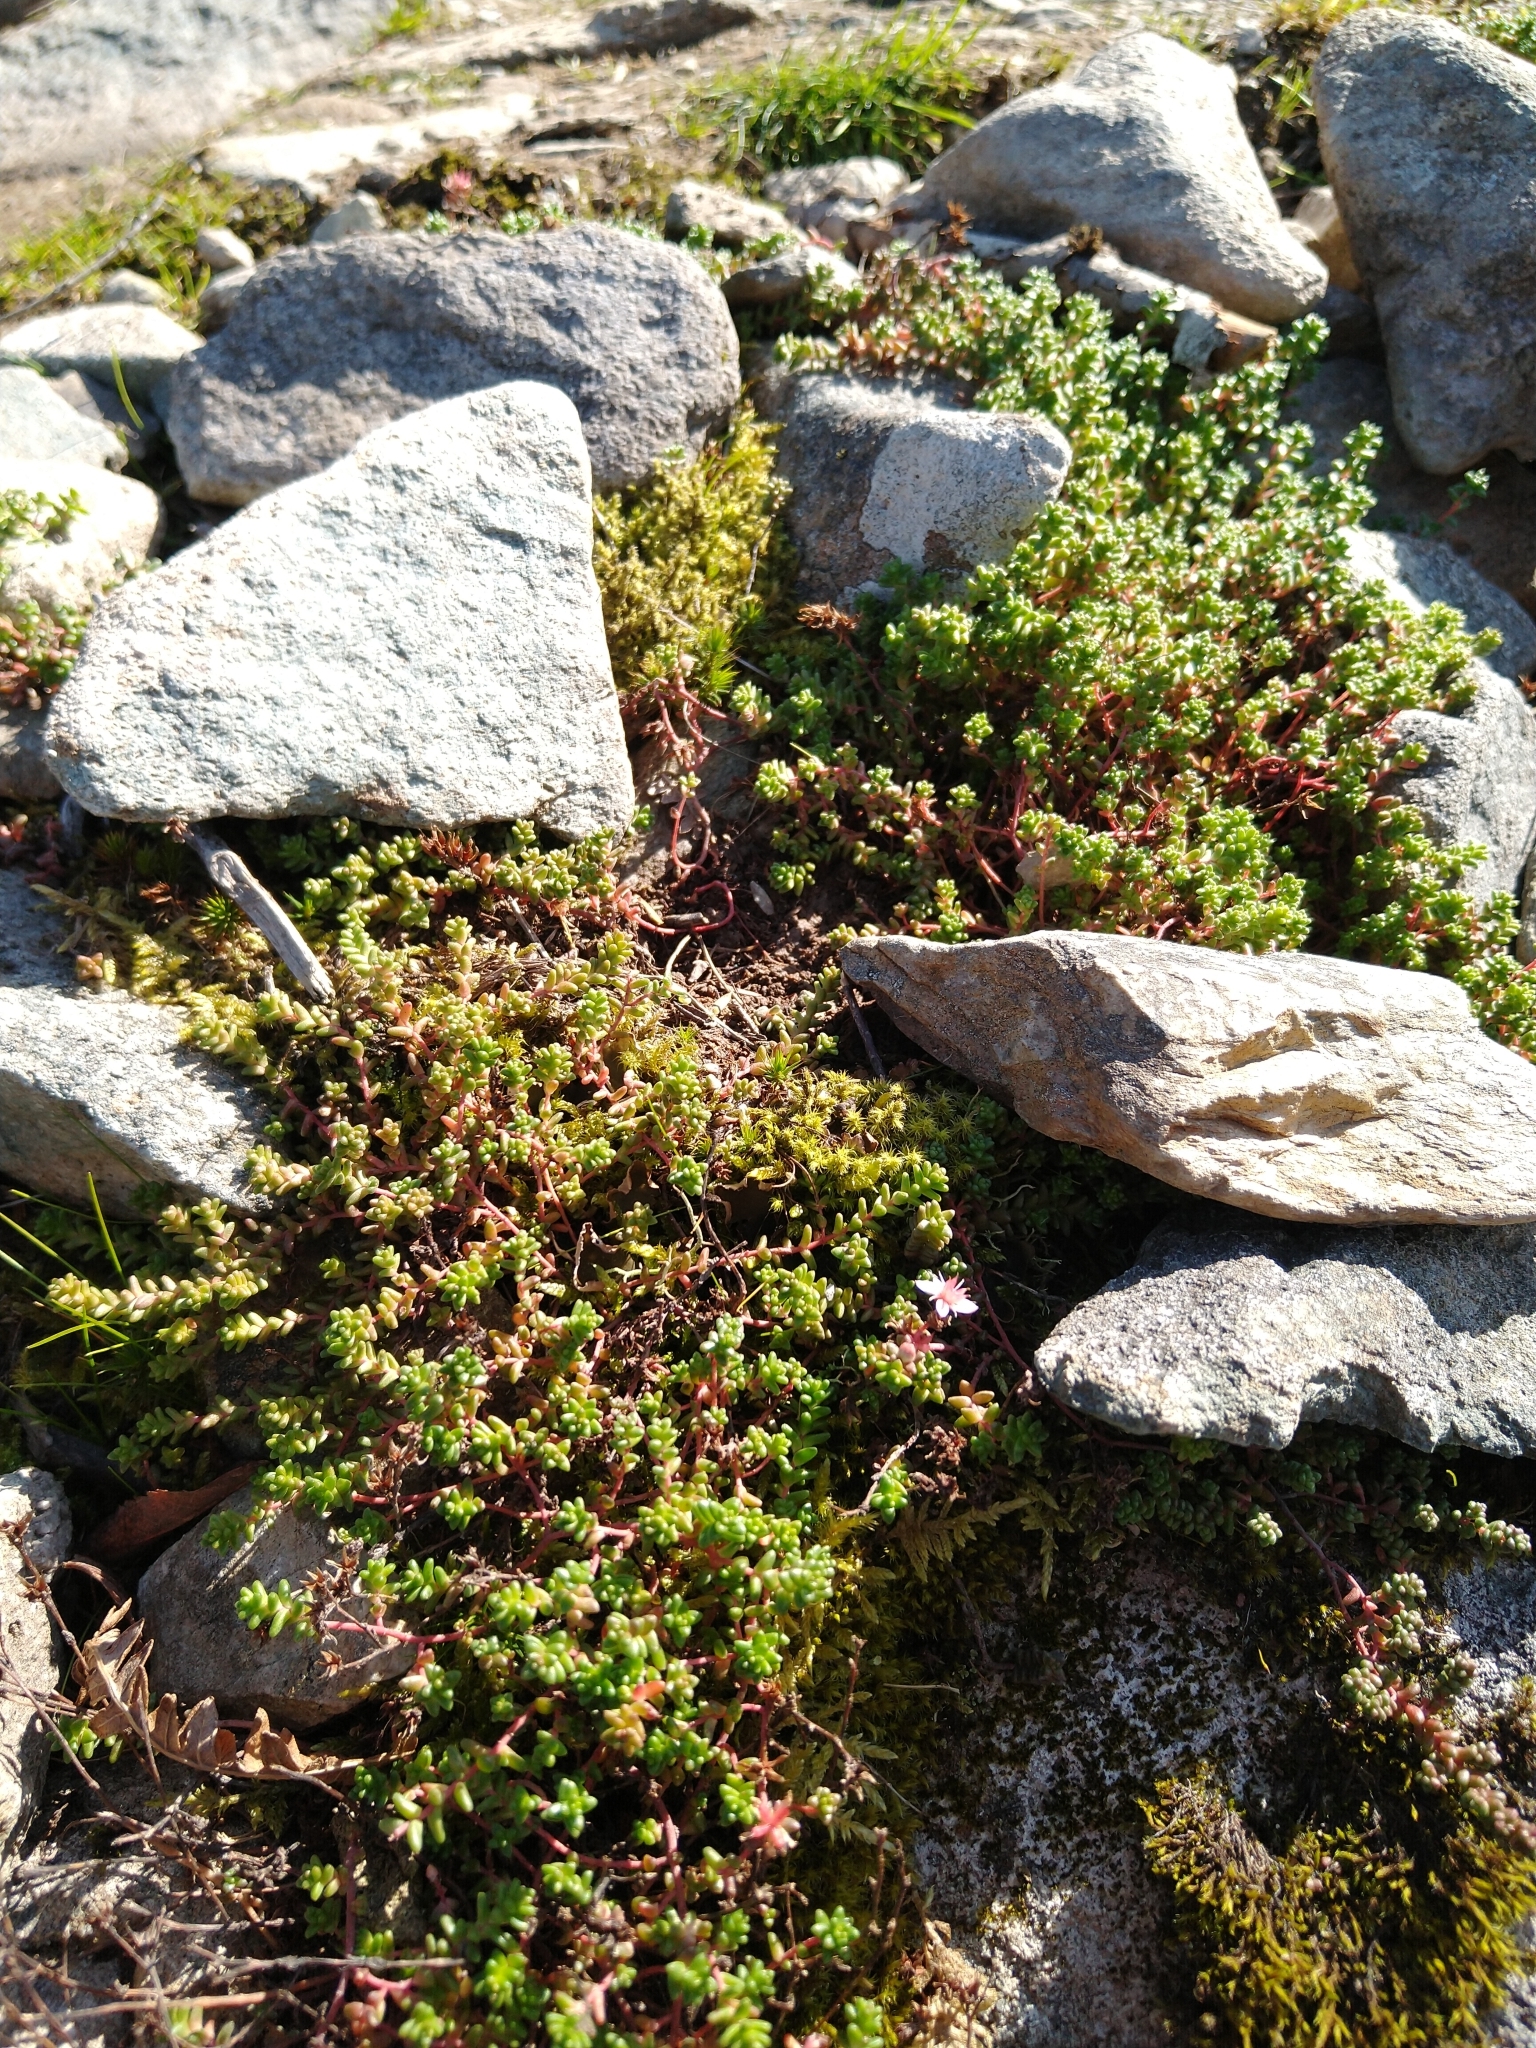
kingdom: Plantae
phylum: Tracheophyta
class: Magnoliopsida
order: Saxifragales
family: Crassulaceae
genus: Sedum
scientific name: Sedum anglicum
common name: English stonecrop
